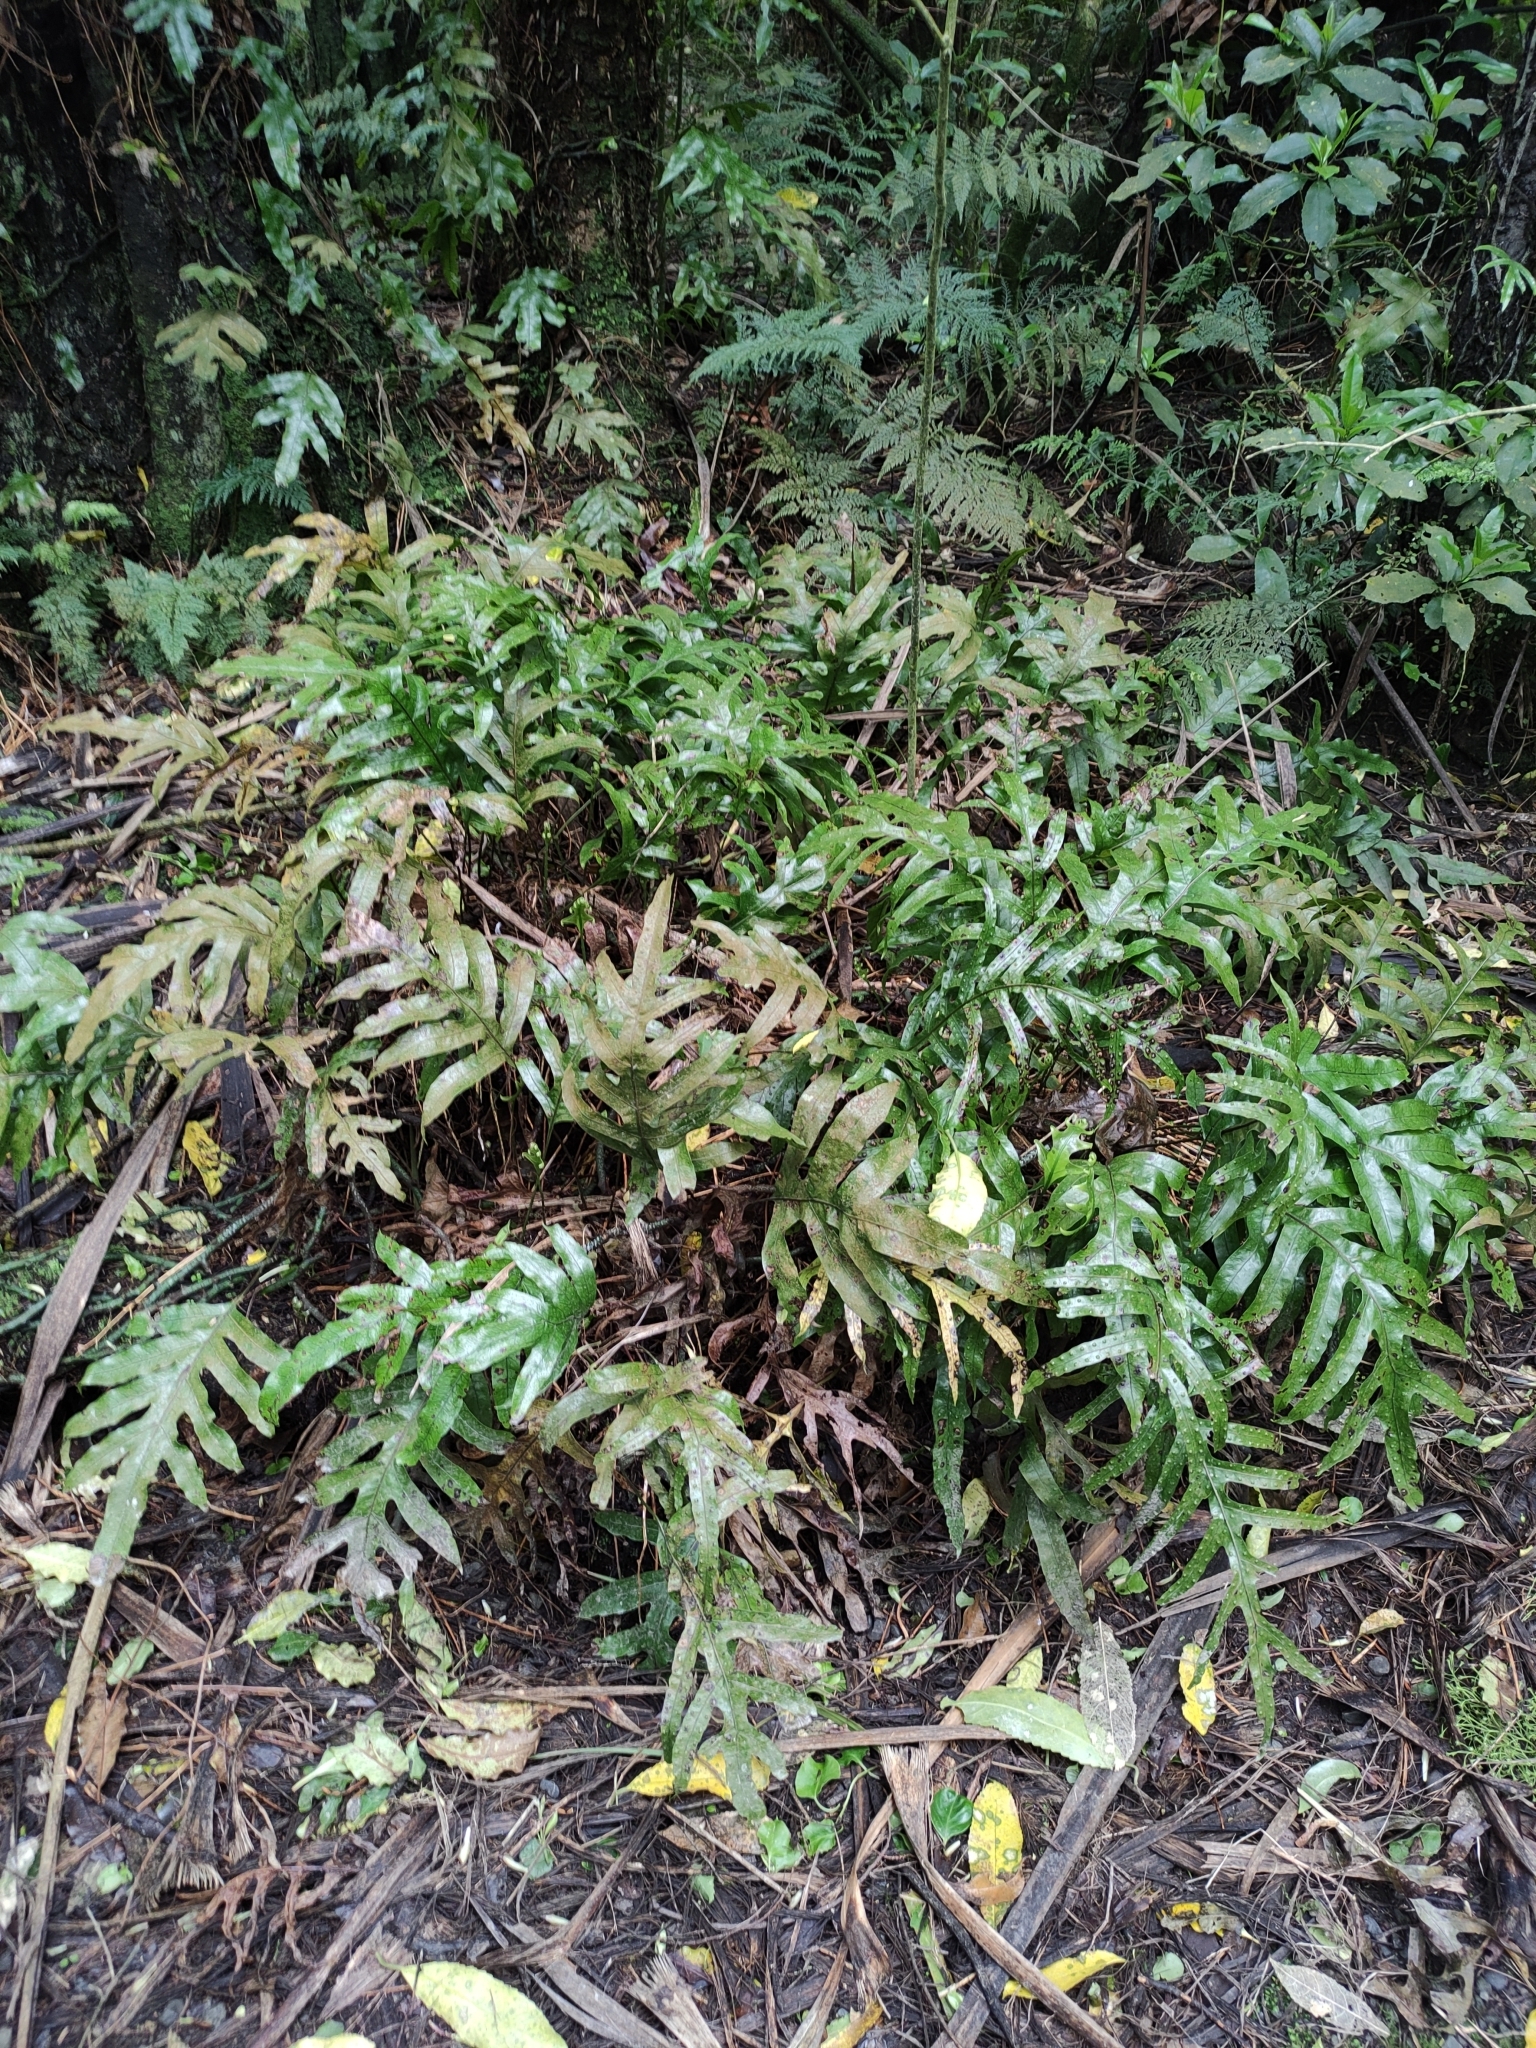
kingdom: Plantae
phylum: Tracheophyta
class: Polypodiopsida
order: Polypodiales
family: Polypodiaceae
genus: Lecanopteris
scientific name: Lecanopteris pustulata
